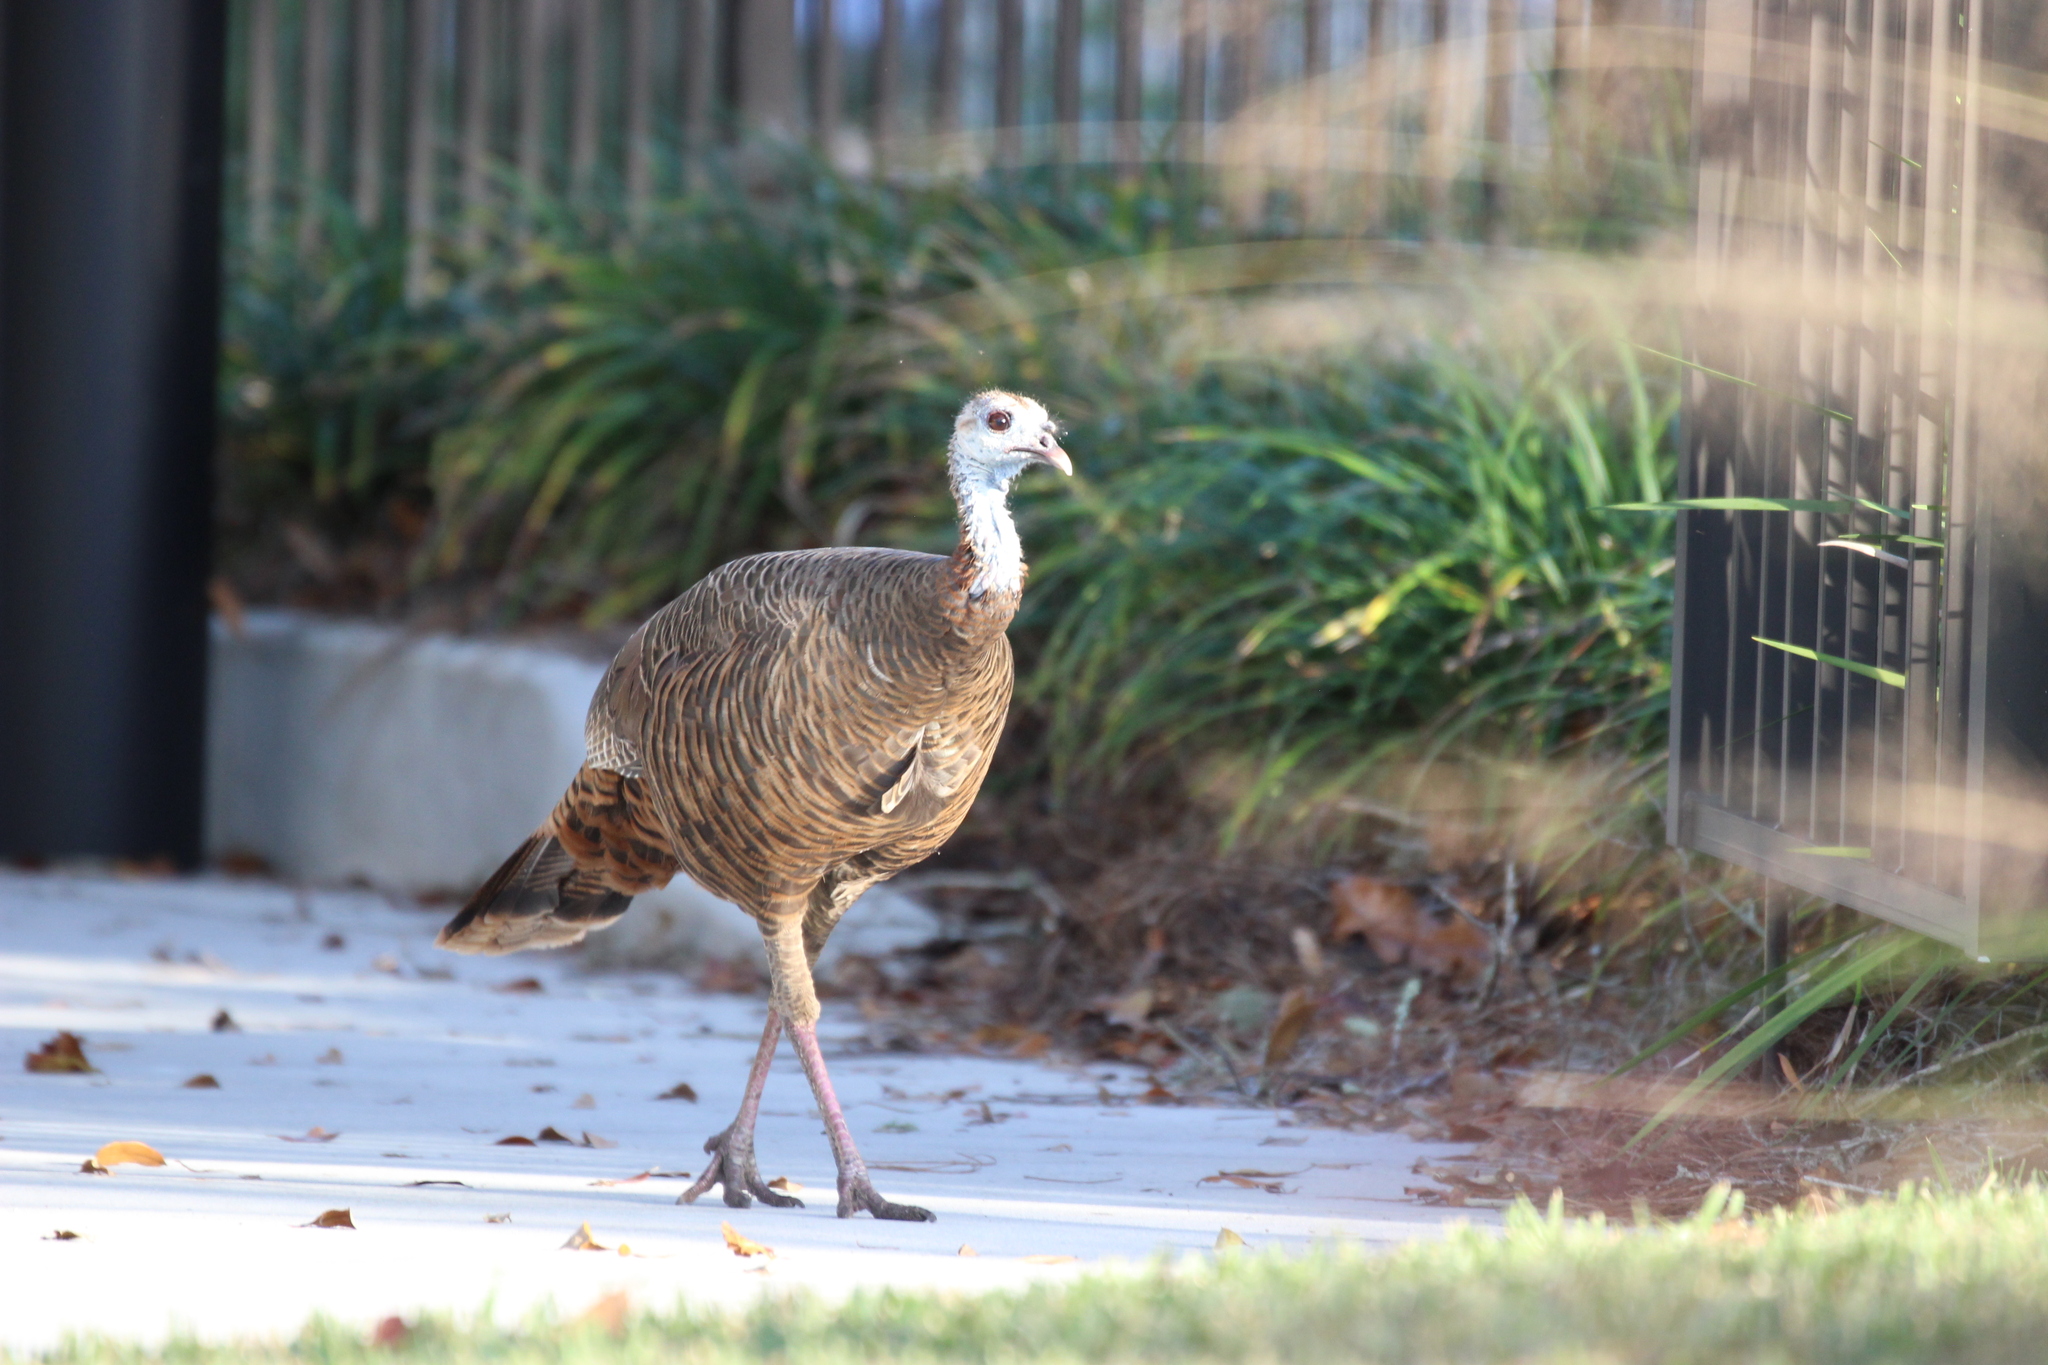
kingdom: Animalia
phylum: Chordata
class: Aves
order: Galliformes
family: Phasianidae
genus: Meleagris
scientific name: Meleagris gallopavo
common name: Wild turkey
